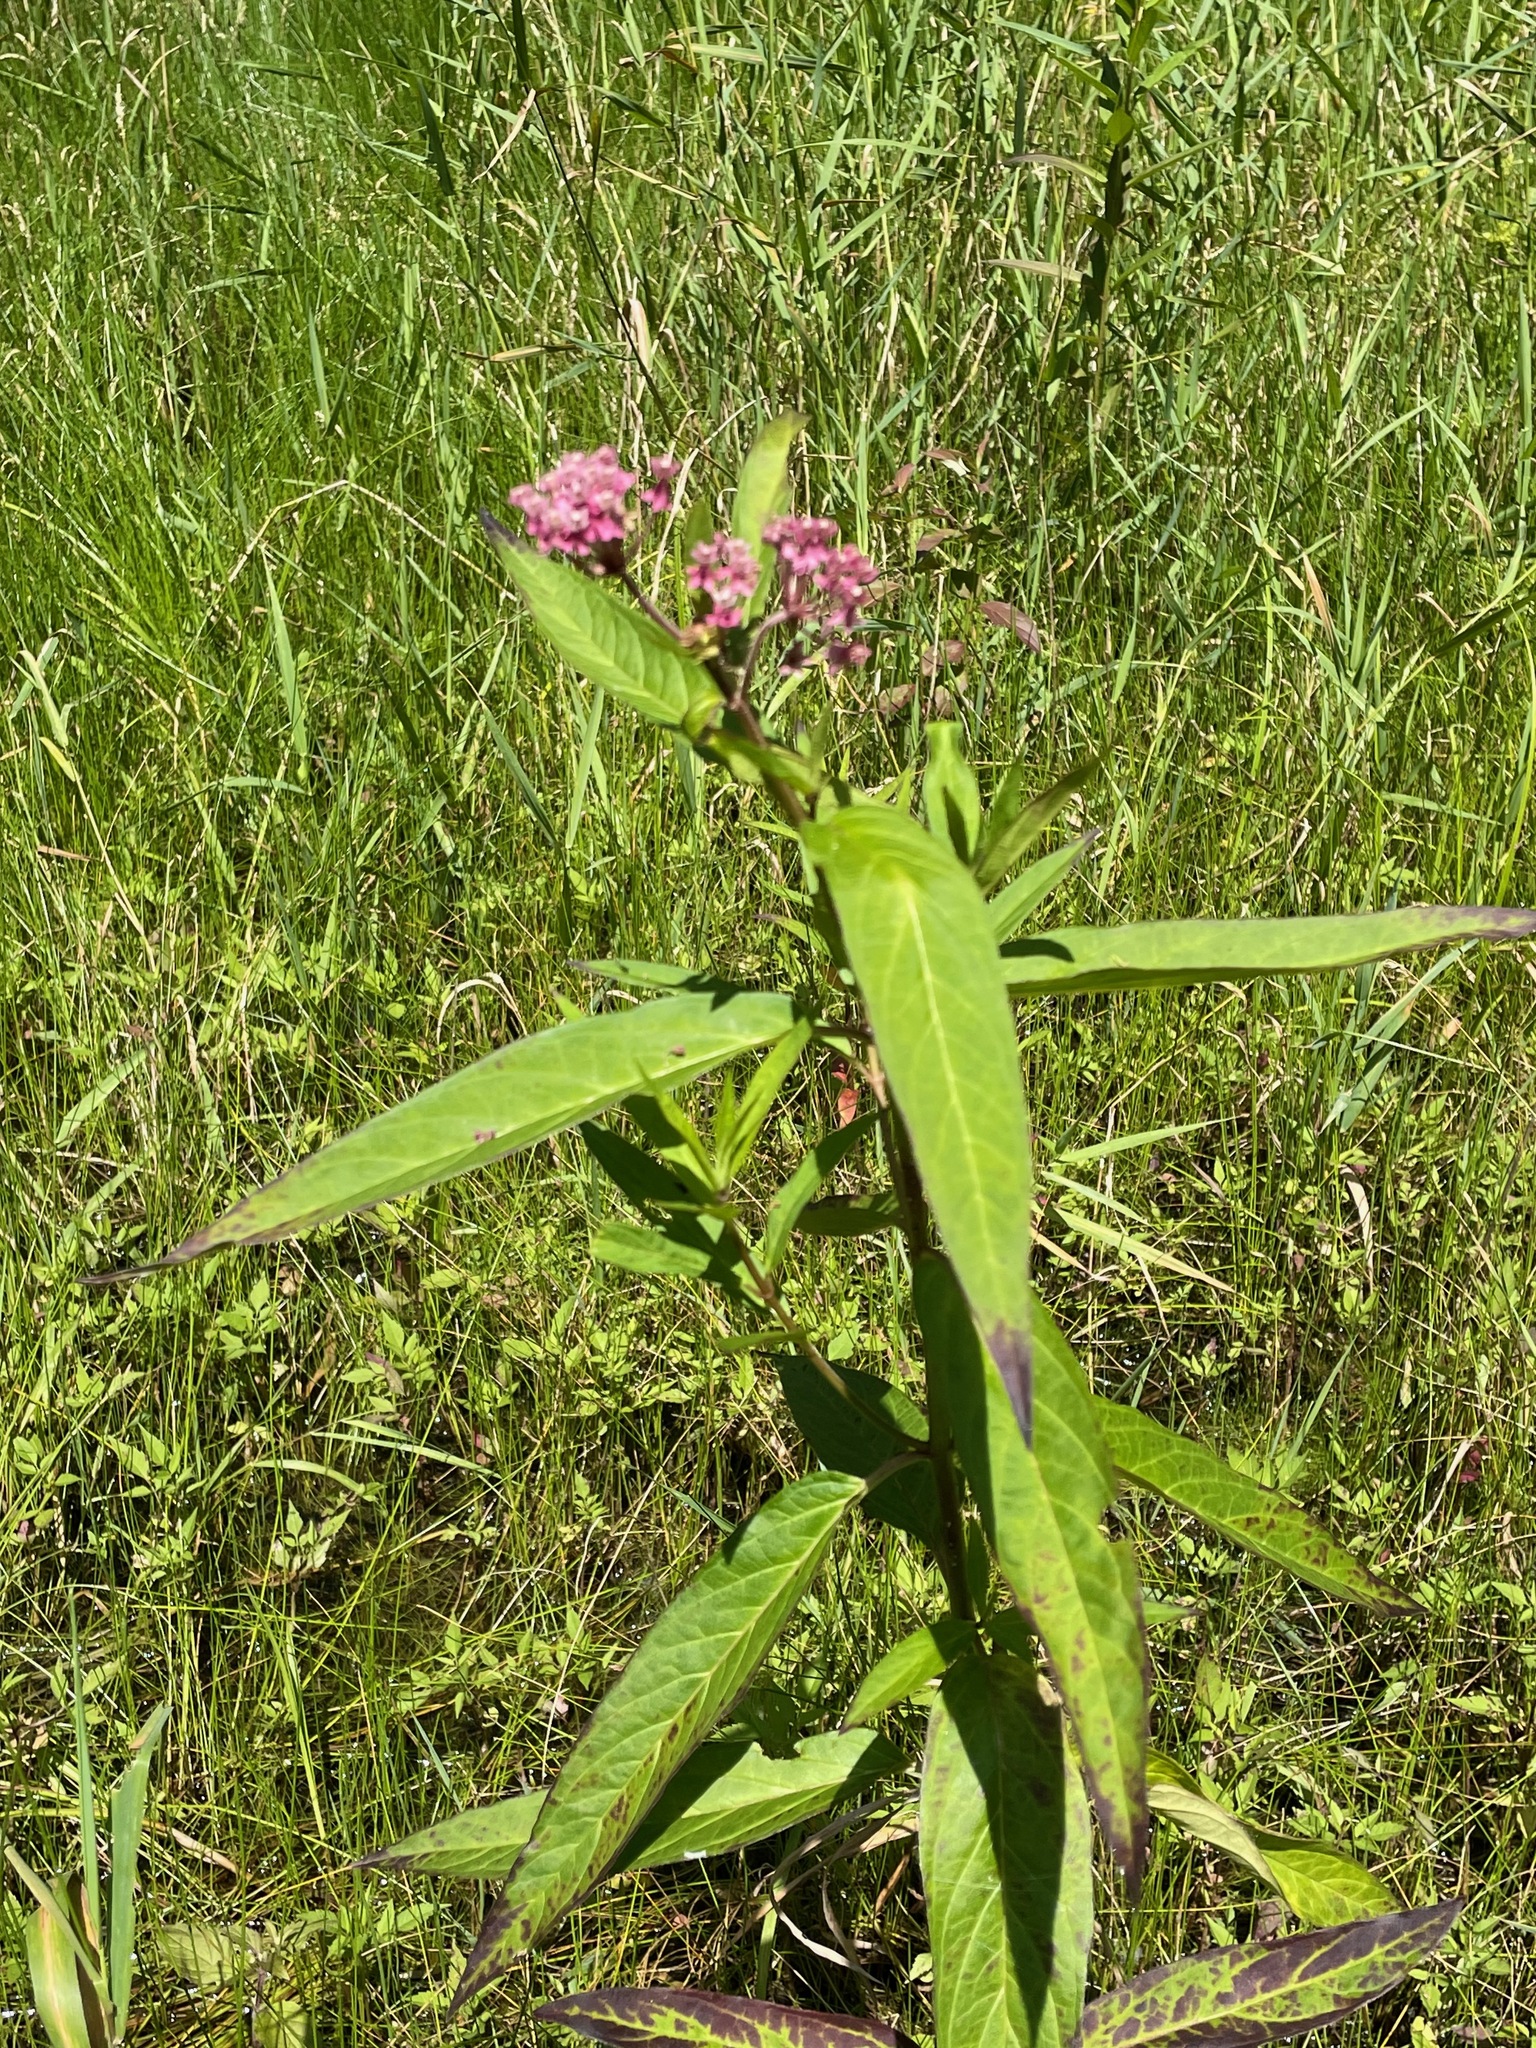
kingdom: Plantae
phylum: Tracheophyta
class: Magnoliopsida
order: Gentianales
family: Apocynaceae
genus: Asclepias
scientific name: Asclepias incarnata
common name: Swamp milkweed
